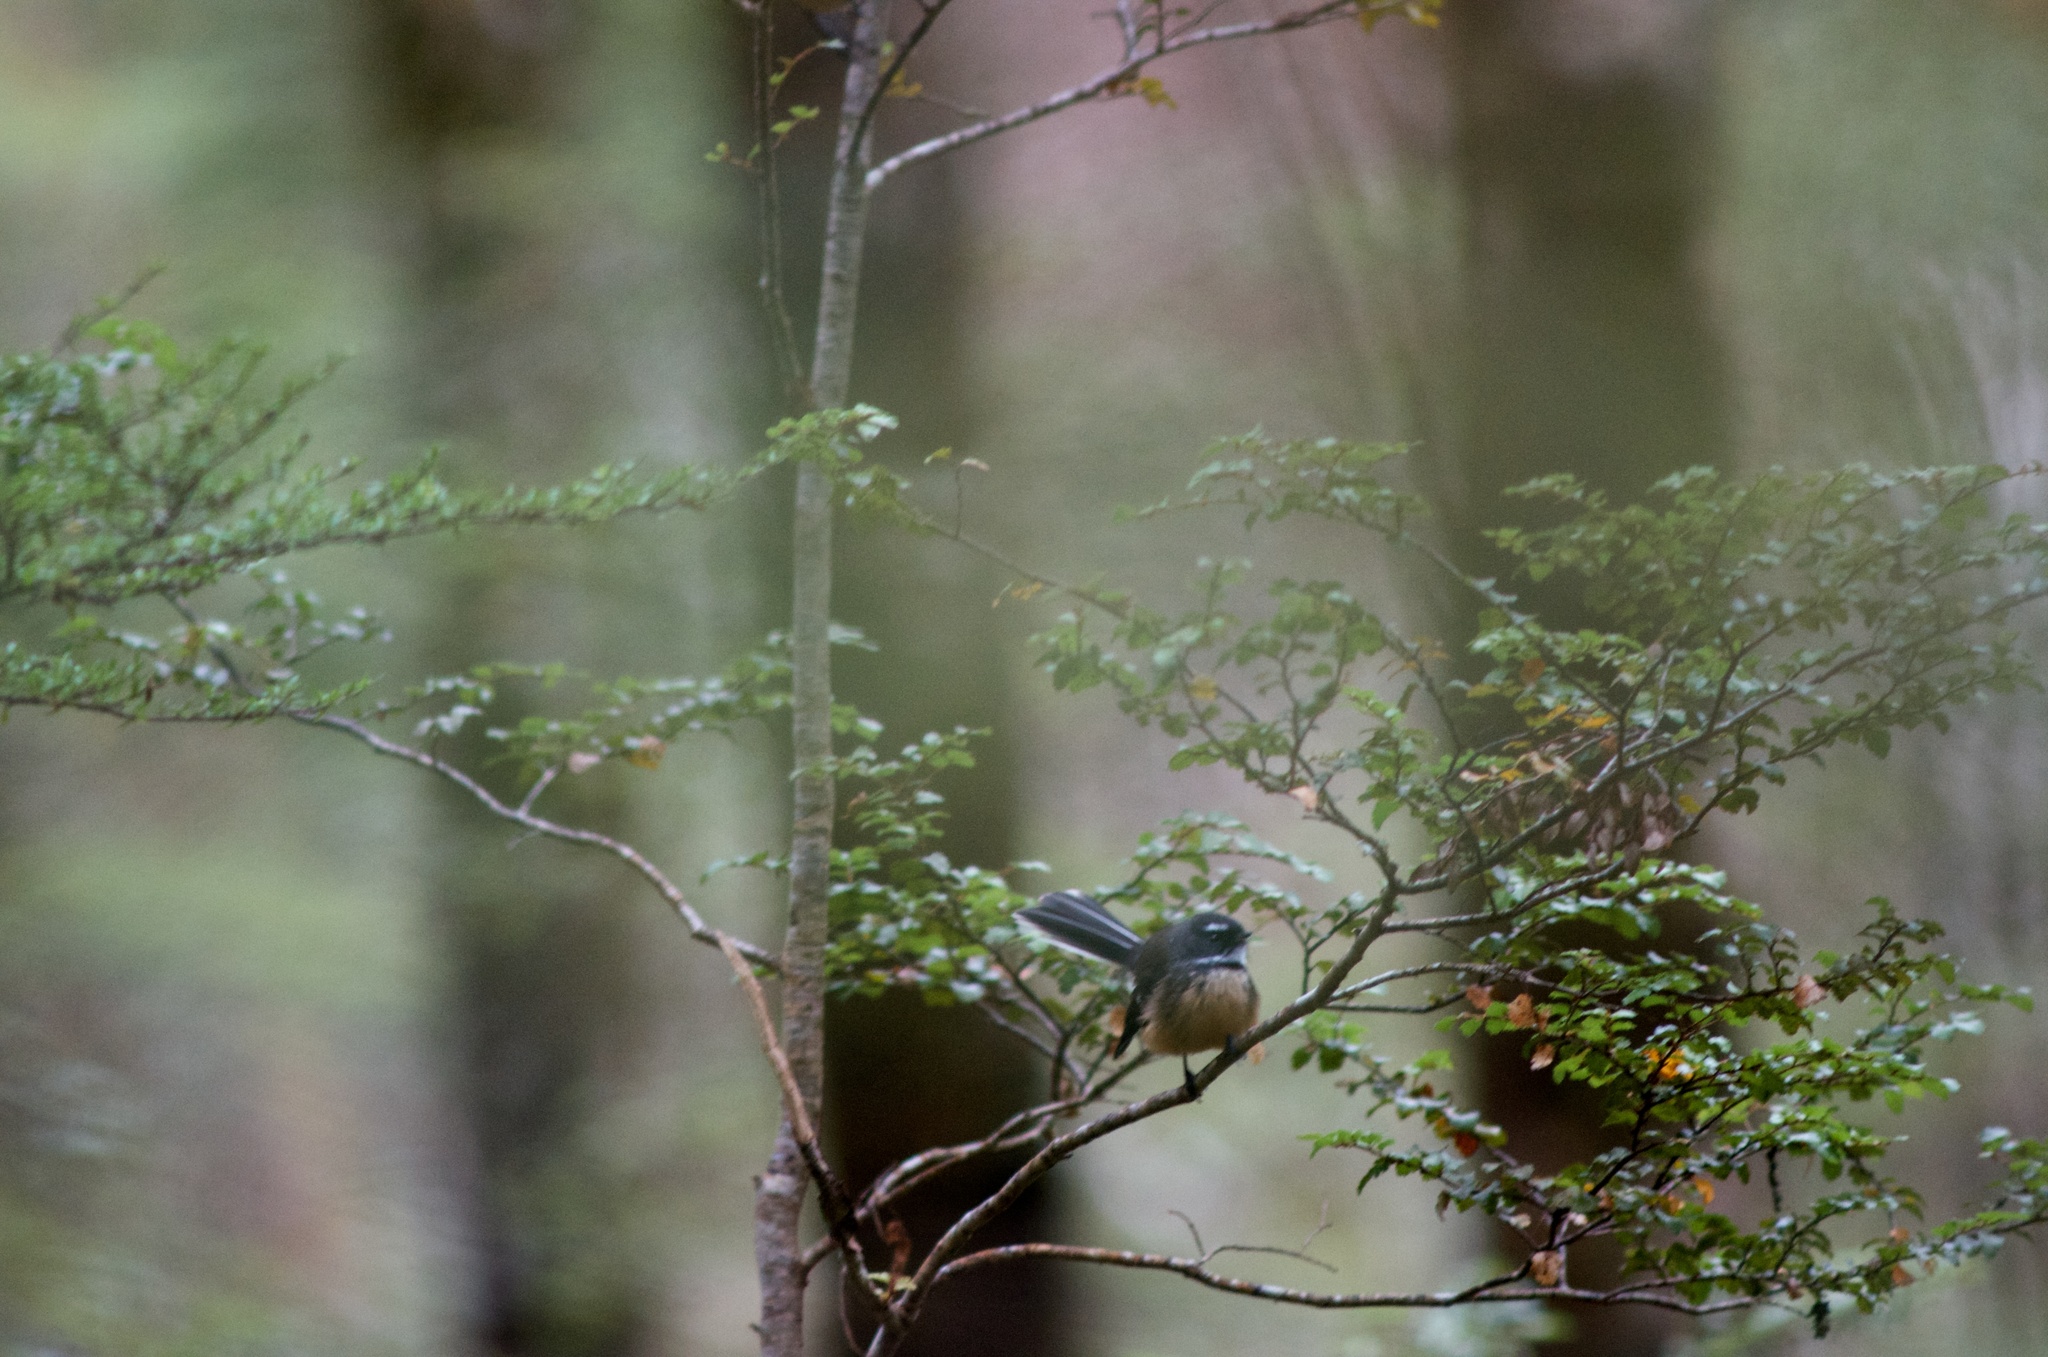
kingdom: Animalia
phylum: Chordata
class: Aves
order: Passeriformes
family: Rhipiduridae
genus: Rhipidura
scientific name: Rhipidura fuliginosa
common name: New zealand fantail
